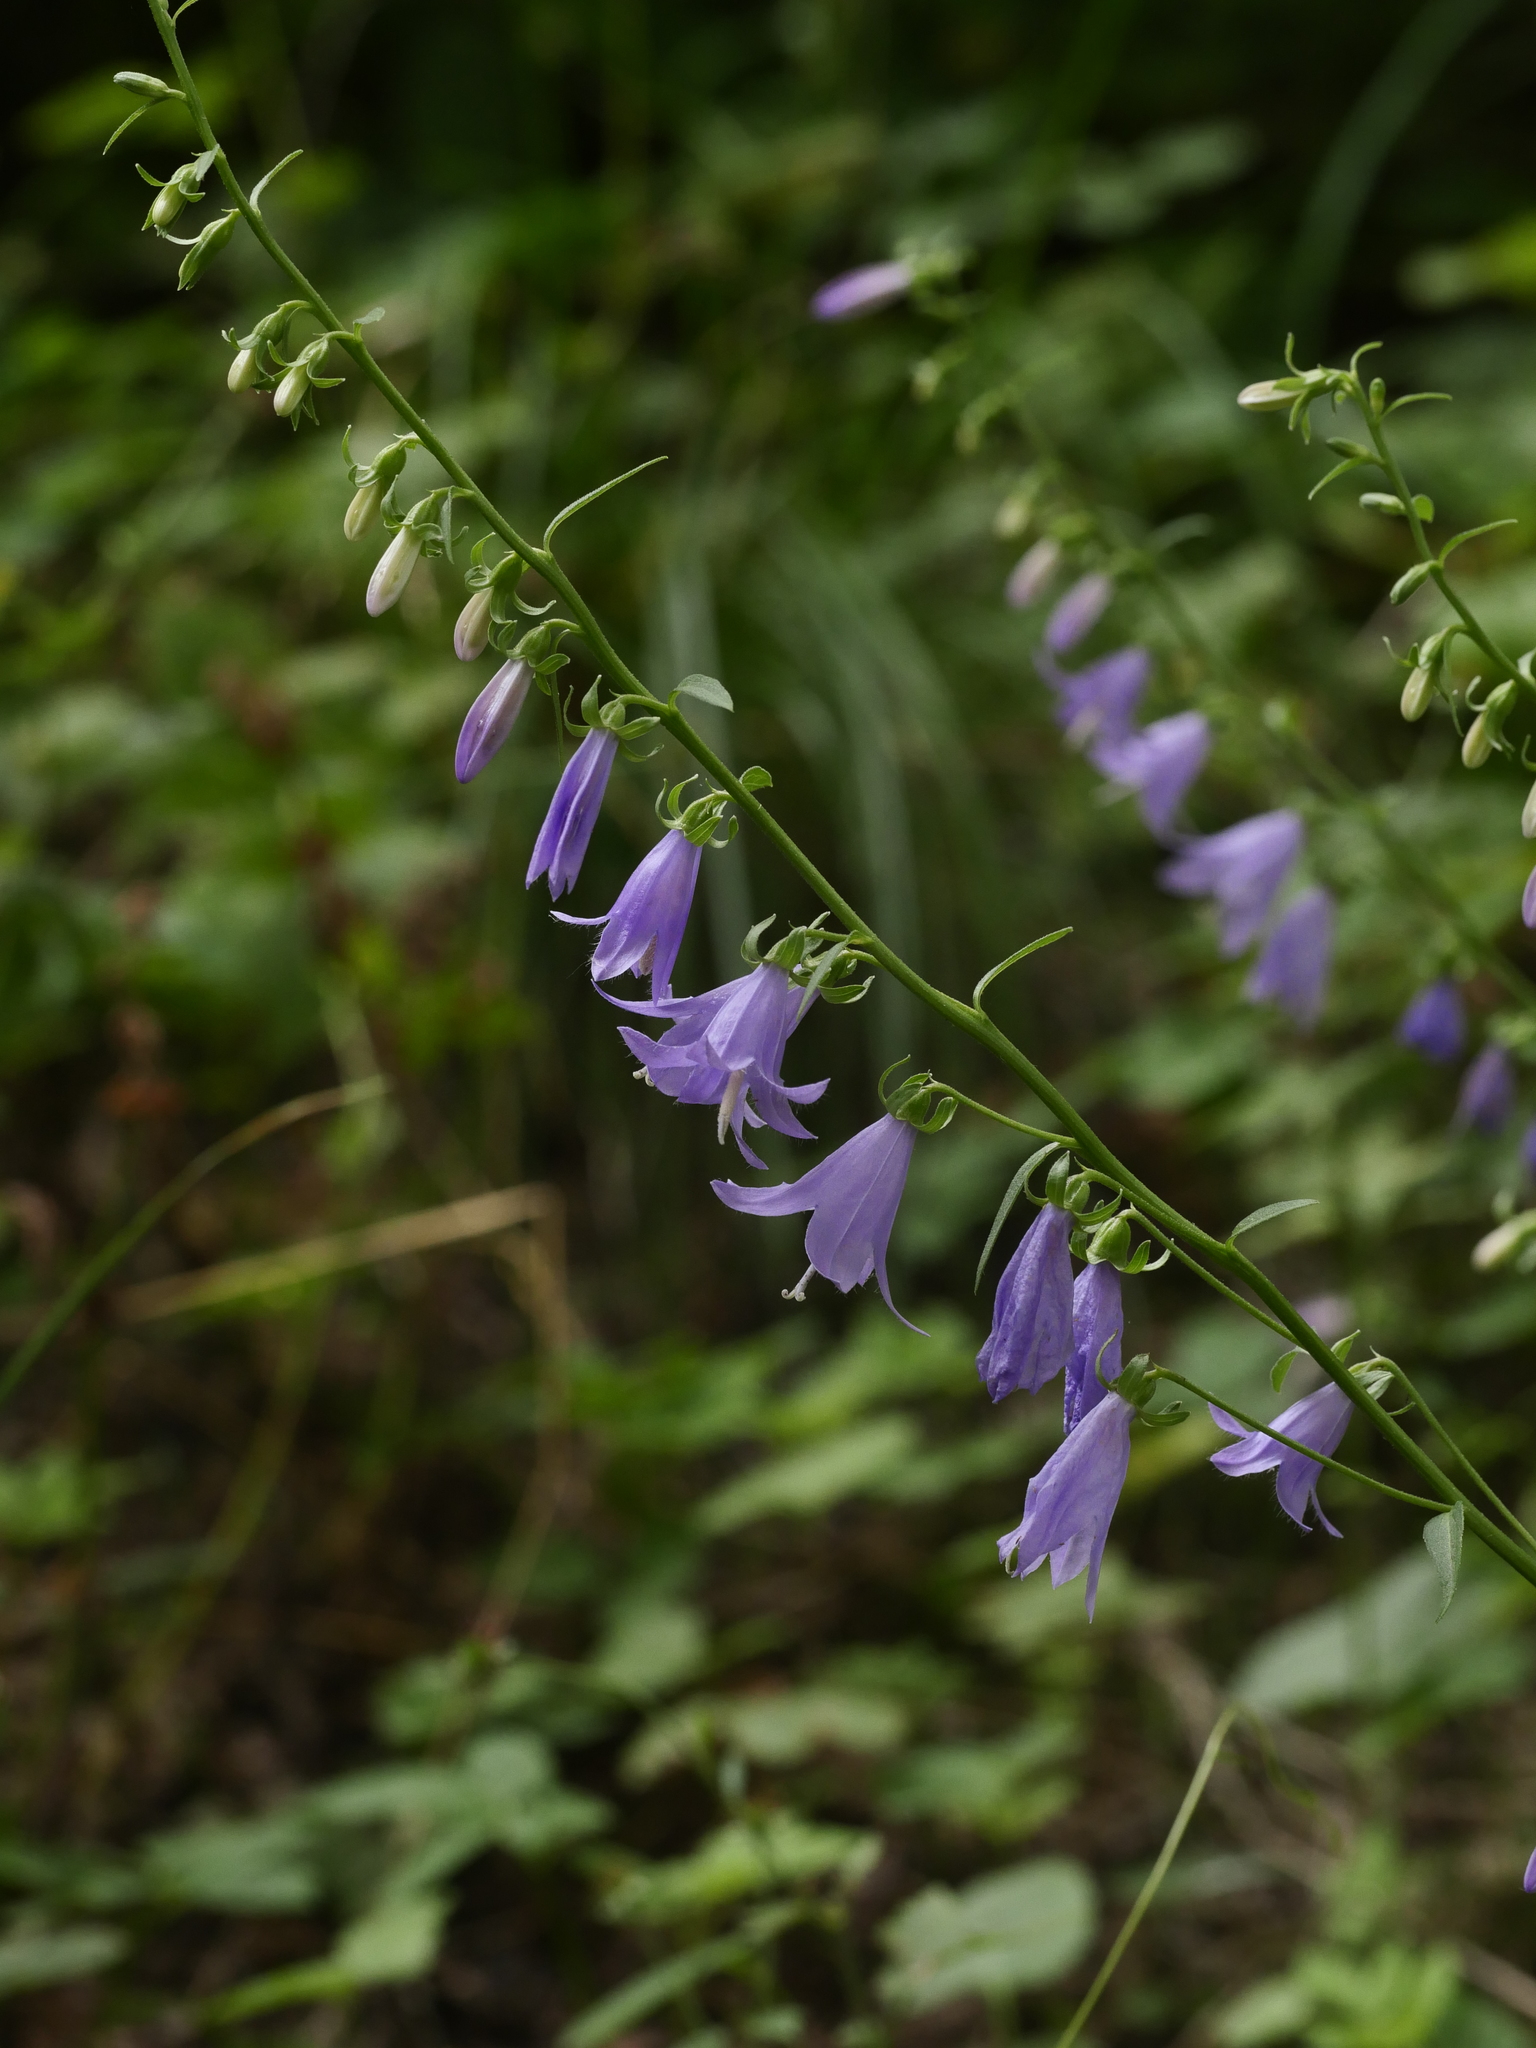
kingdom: Plantae
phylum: Tracheophyta
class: Magnoliopsida
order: Asterales
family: Campanulaceae
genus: Campanula
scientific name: Campanula rapunculoides
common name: Creeping bellflower
